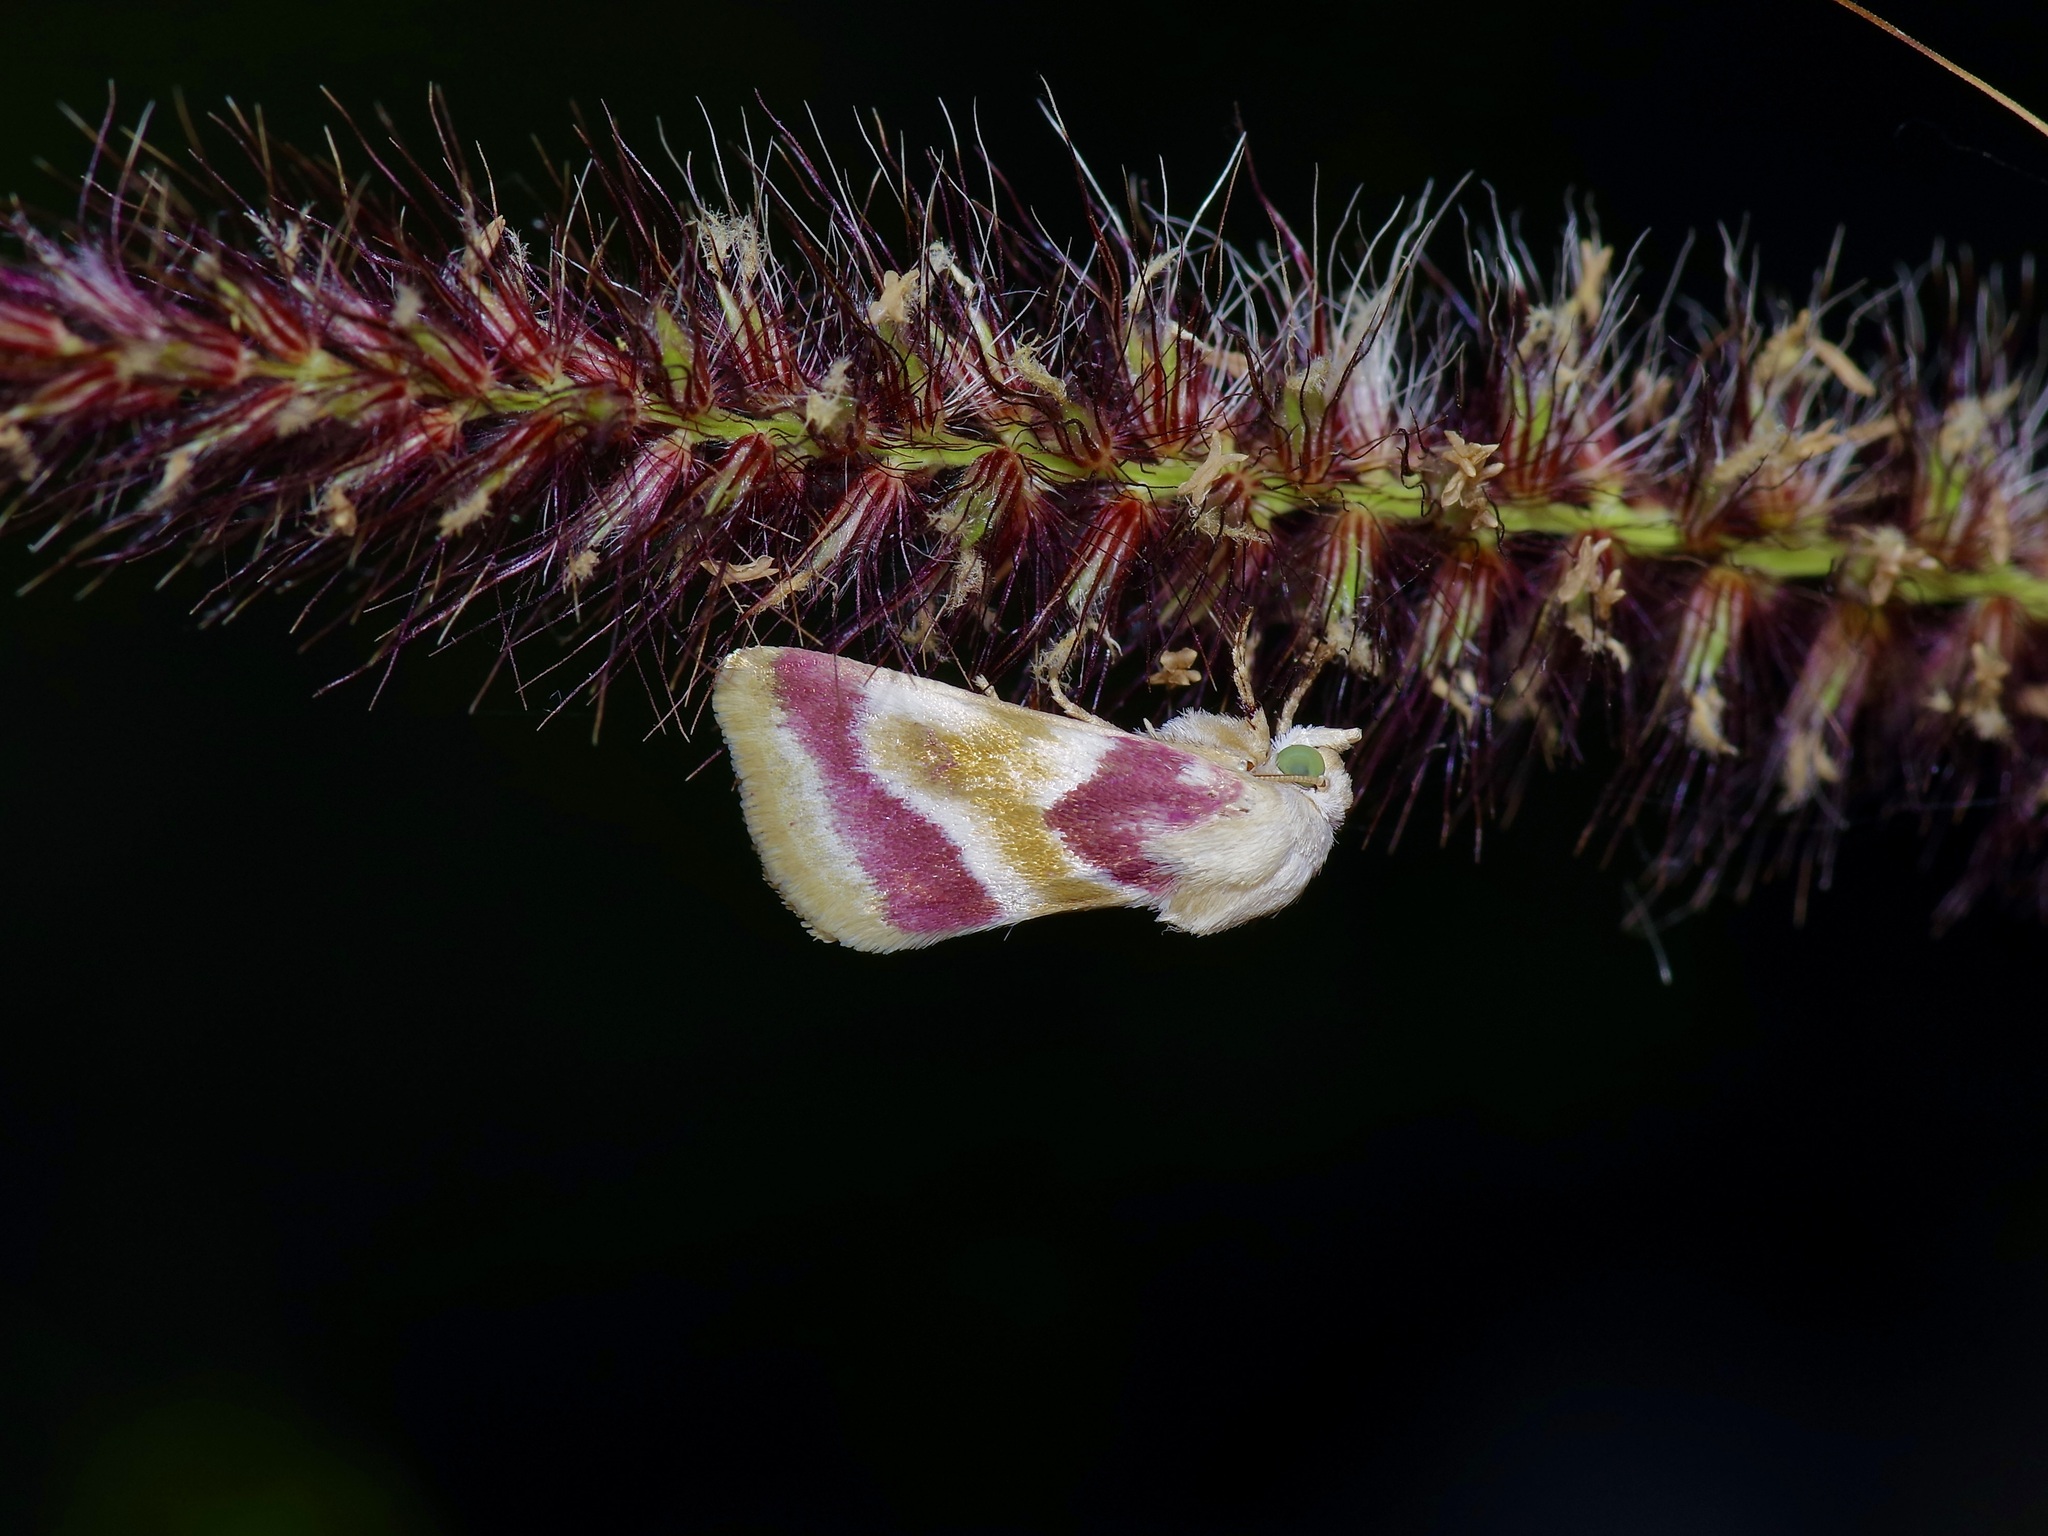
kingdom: Animalia
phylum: Arthropoda
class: Insecta
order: Lepidoptera
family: Noctuidae
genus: Schinia
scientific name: Schinia regina
